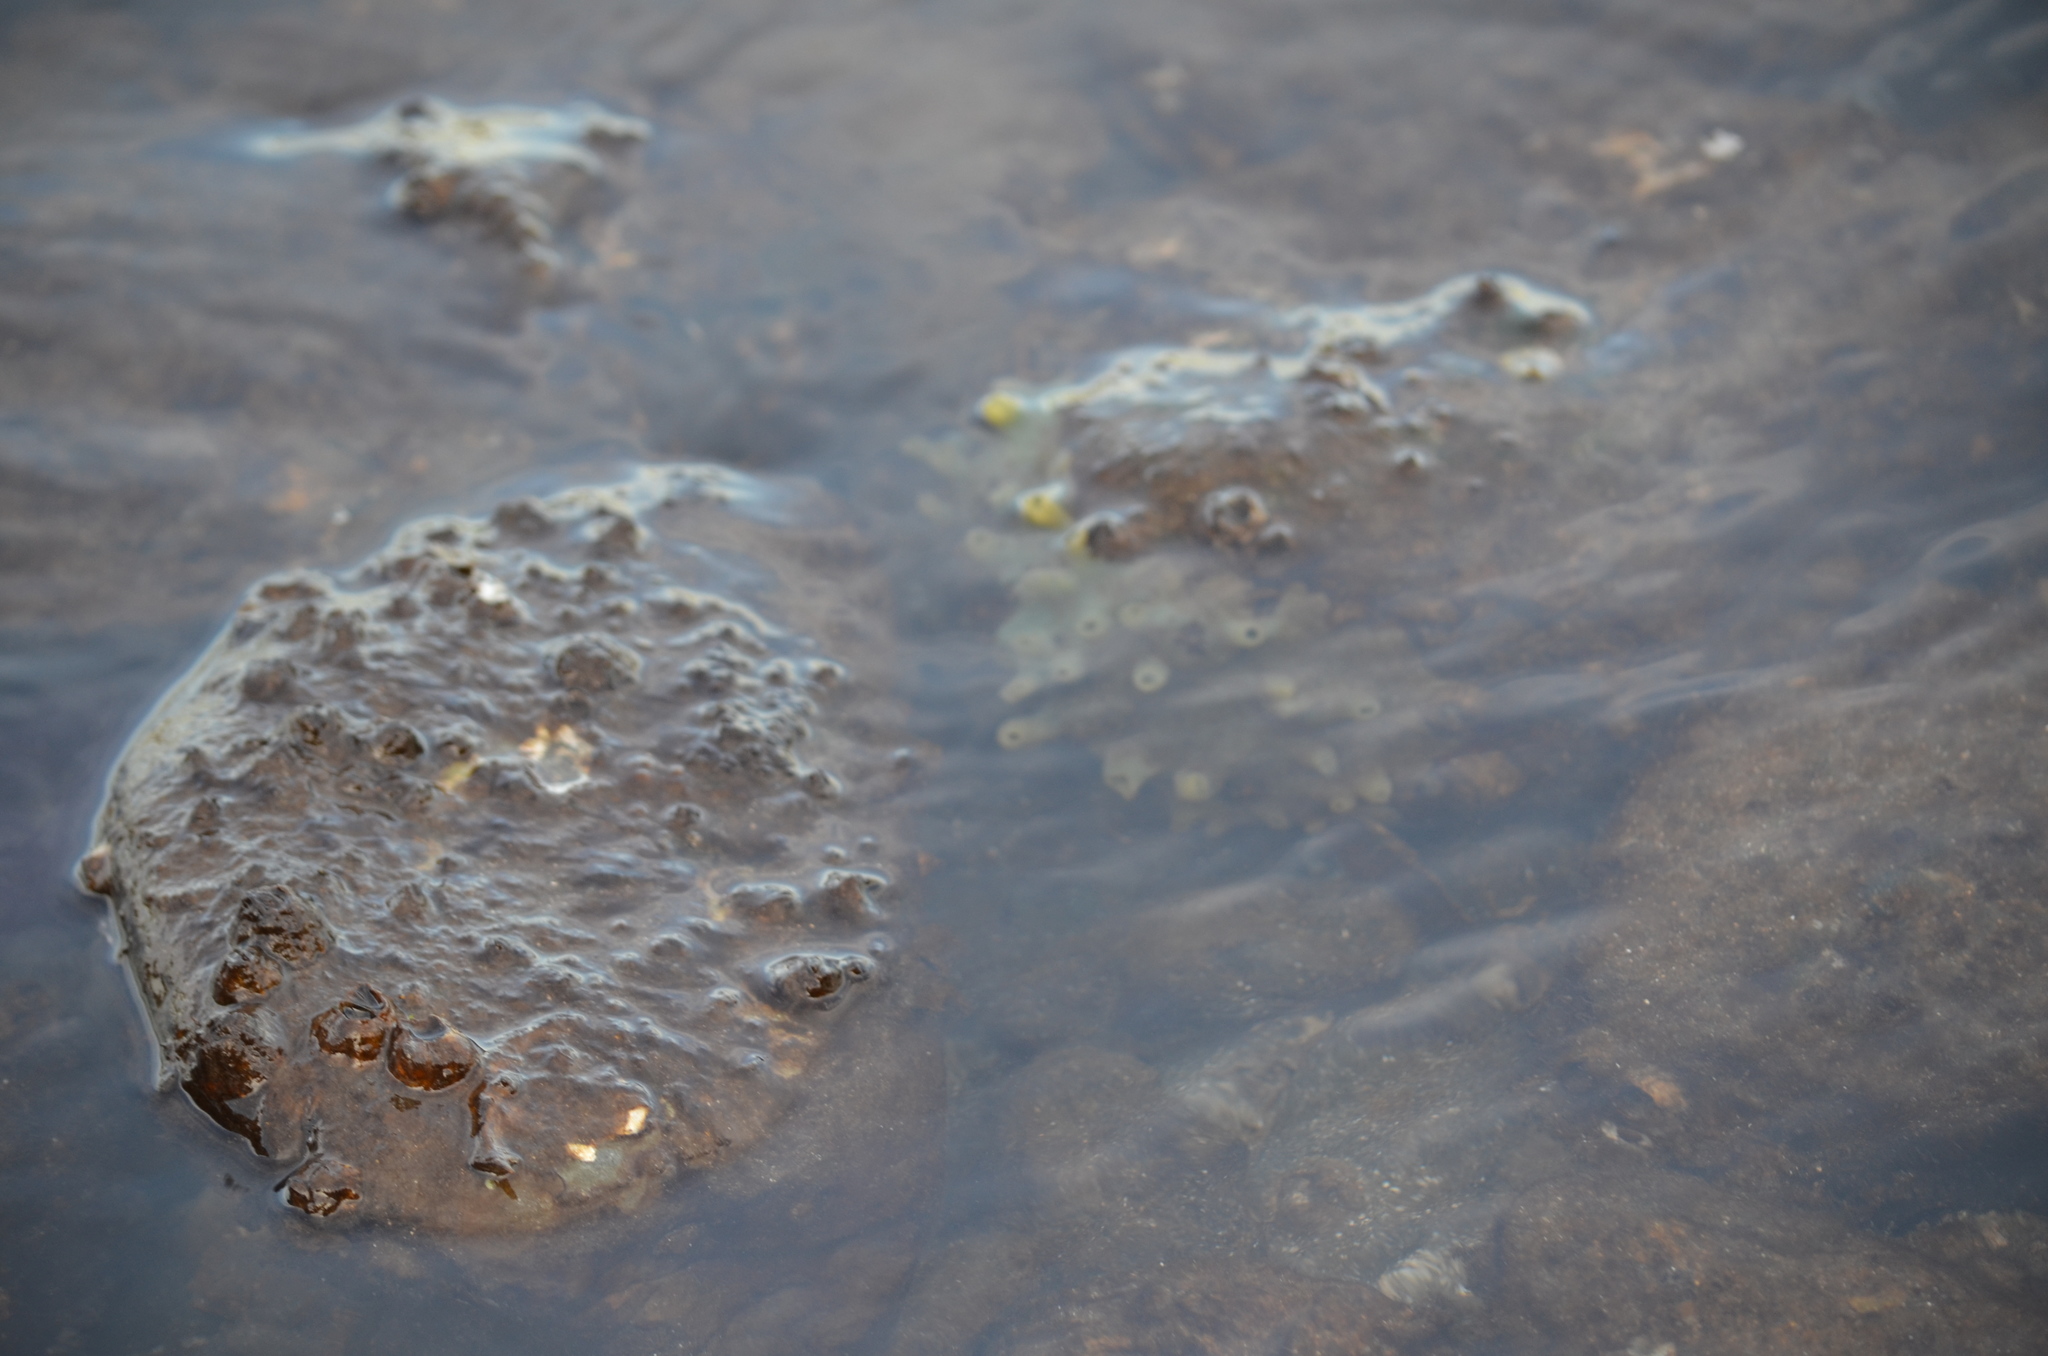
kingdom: Animalia
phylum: Porifera
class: Demospongiae
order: Suberitida
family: Halichondriidae
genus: Halichondria
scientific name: Halichondria panicea
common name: Breadcrumb sponge
